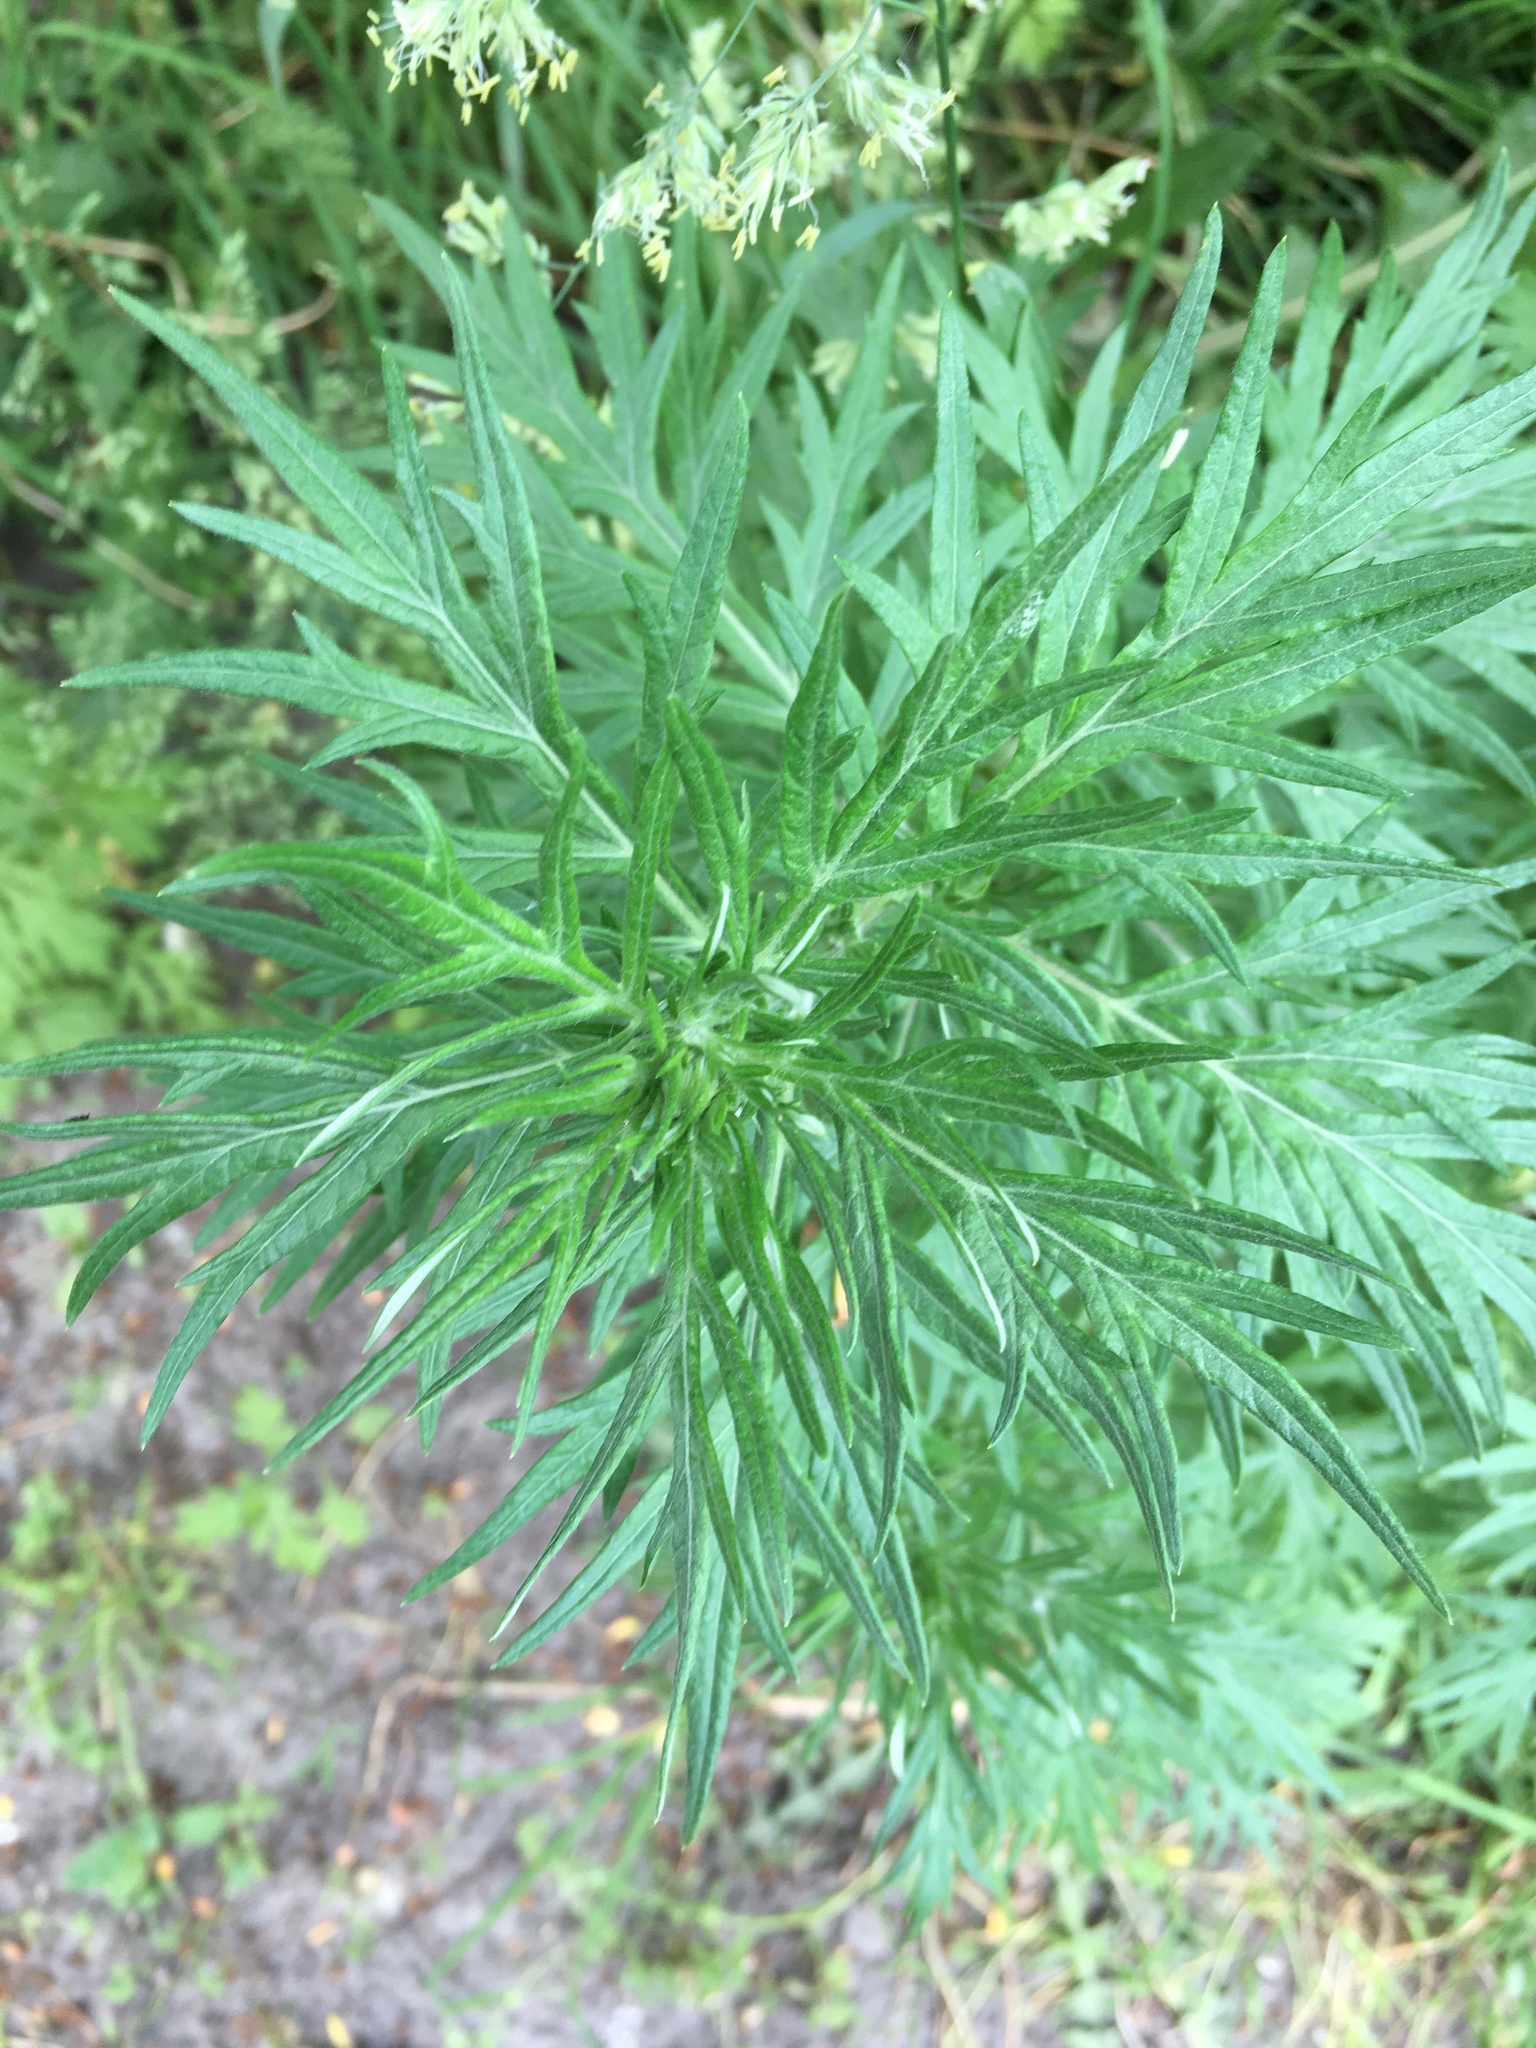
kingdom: Plantae
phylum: Tracheophyta
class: Magnoliopsida
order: Asterales
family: Asteraceae
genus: Artemisia
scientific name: Artemisia vulgaris
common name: Mugwort
